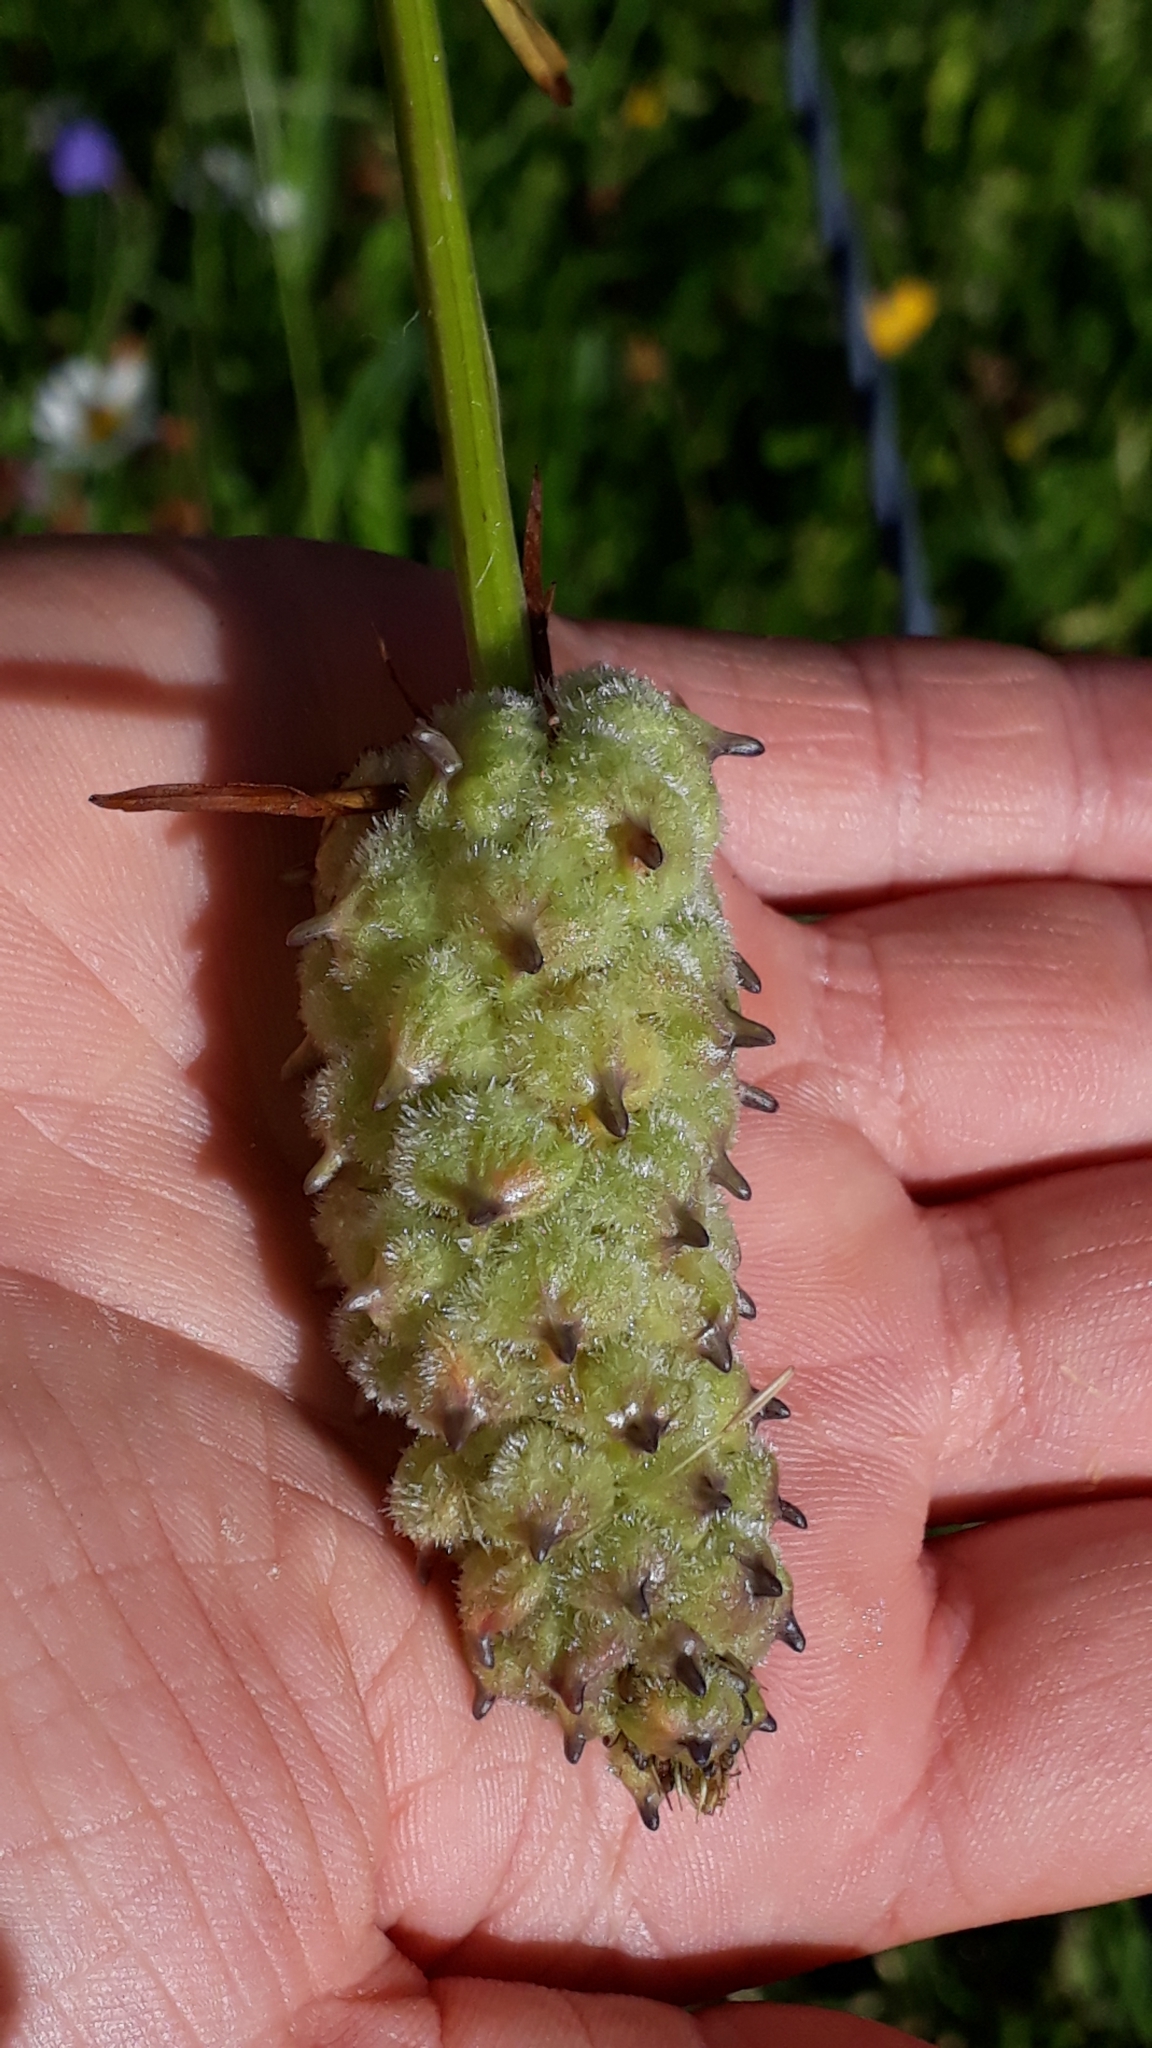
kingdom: Animalia
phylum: Arthropoda
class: Insecta
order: Diptera
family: Cecidomyiidae
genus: Dasineura
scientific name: Dasineura phyteumatis
